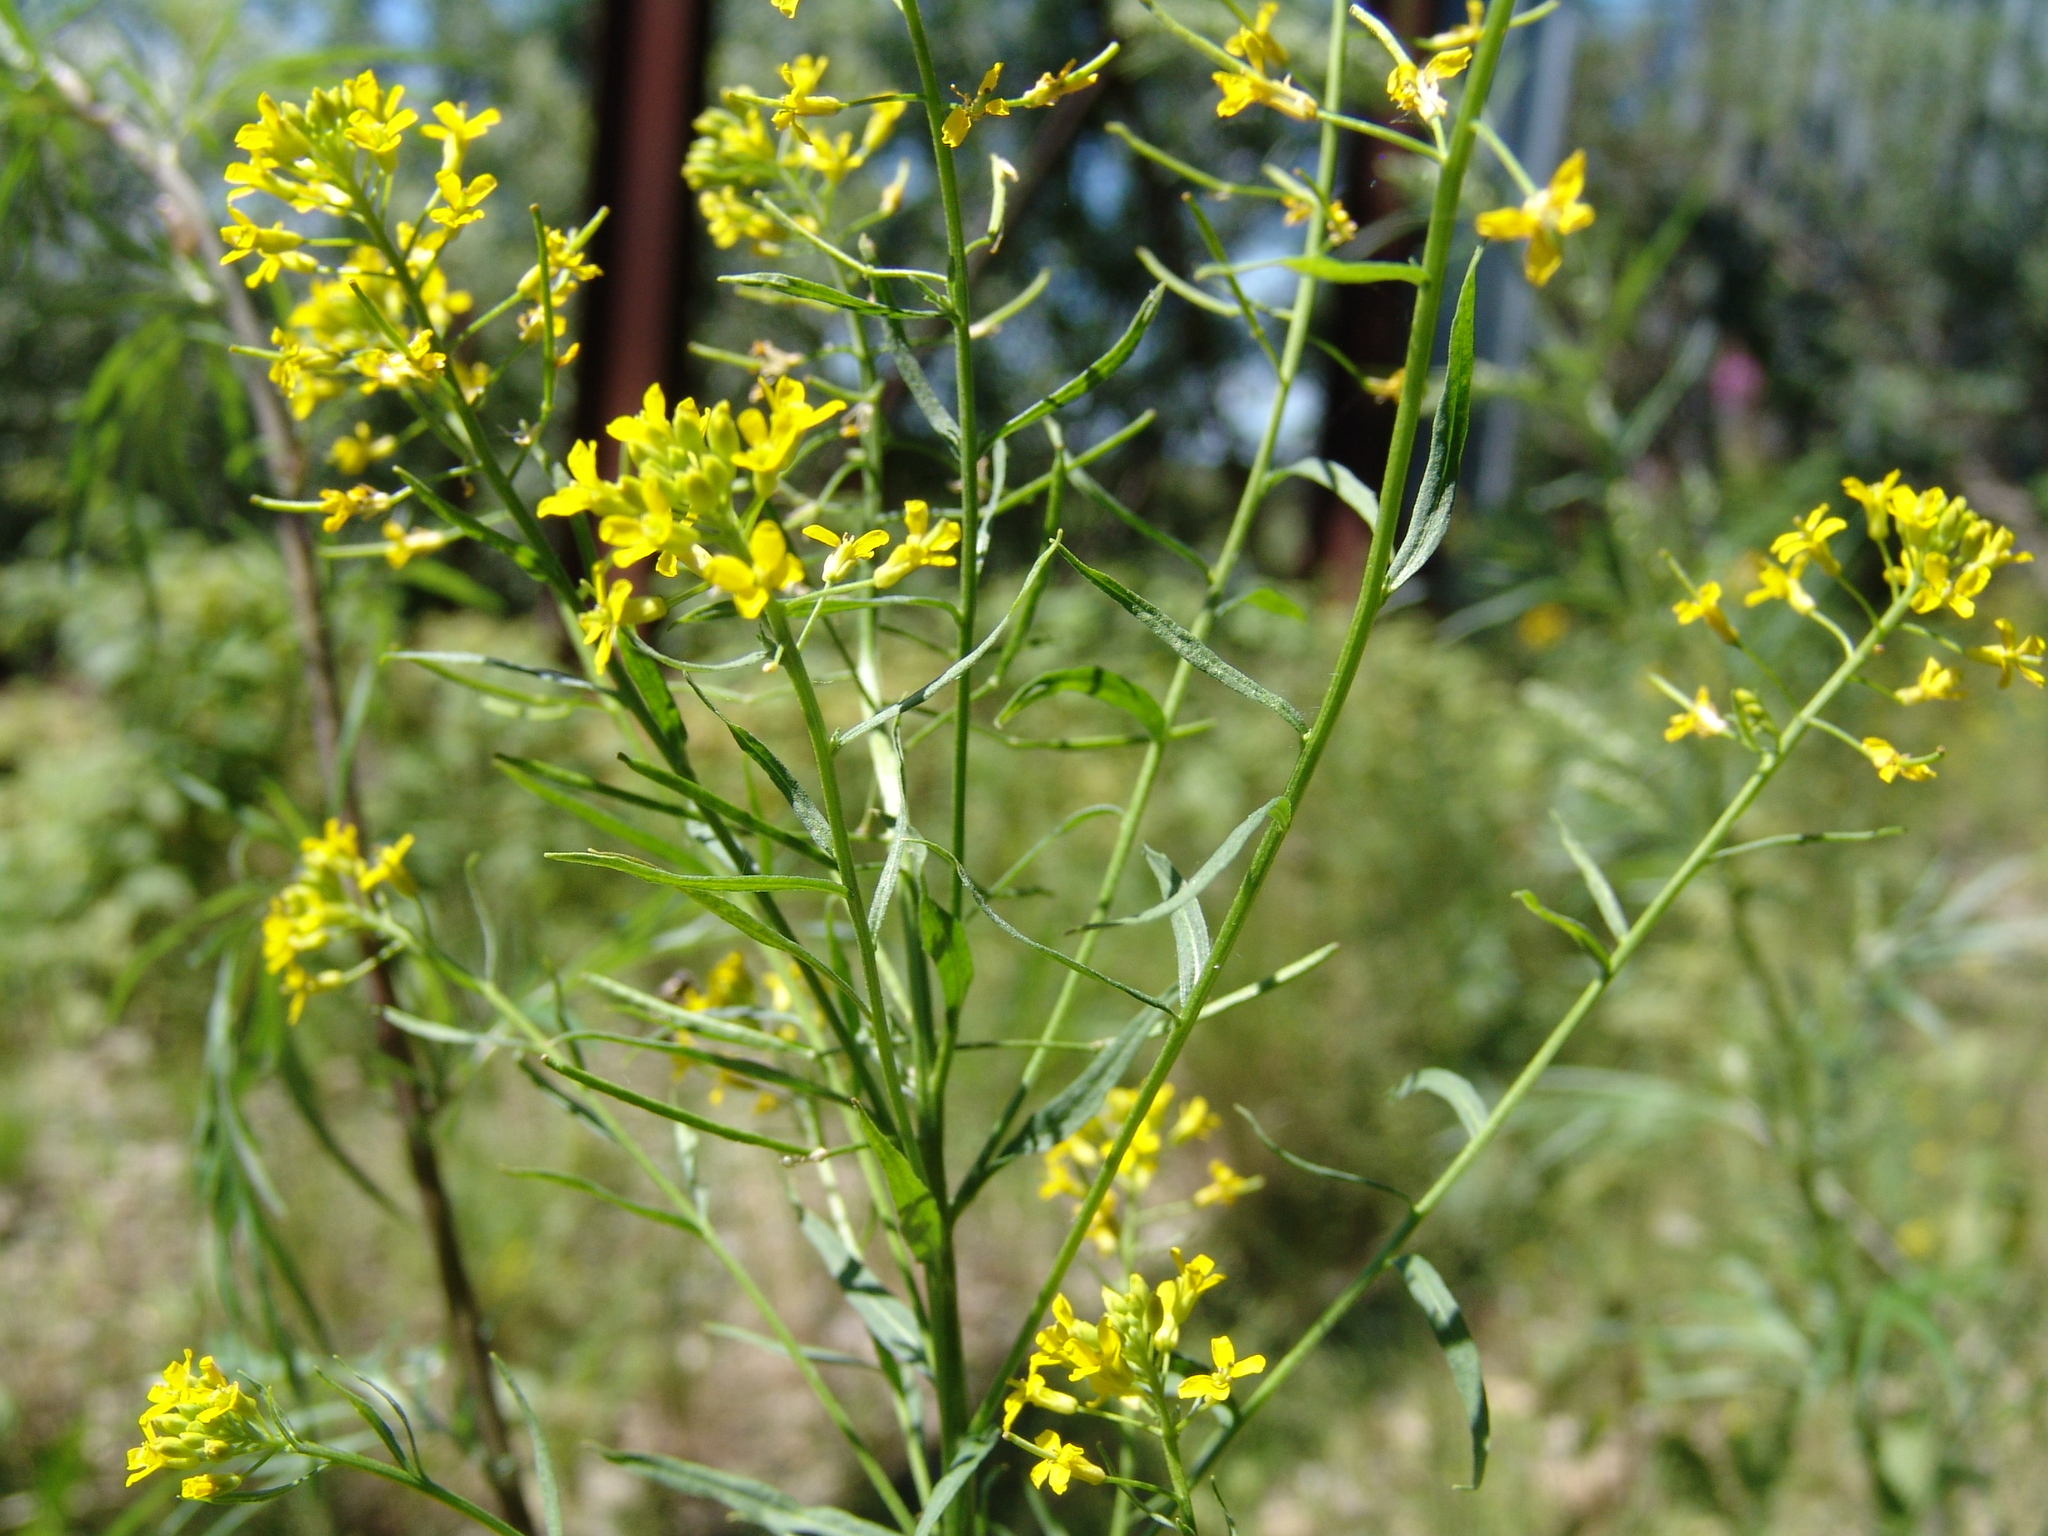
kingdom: Plantae
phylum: Tracheophyta
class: Magnoliopsida
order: Brassicales
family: Brassicaceae
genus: Erysimum
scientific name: Erysimum cheiranthoides
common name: Treacle mustard
